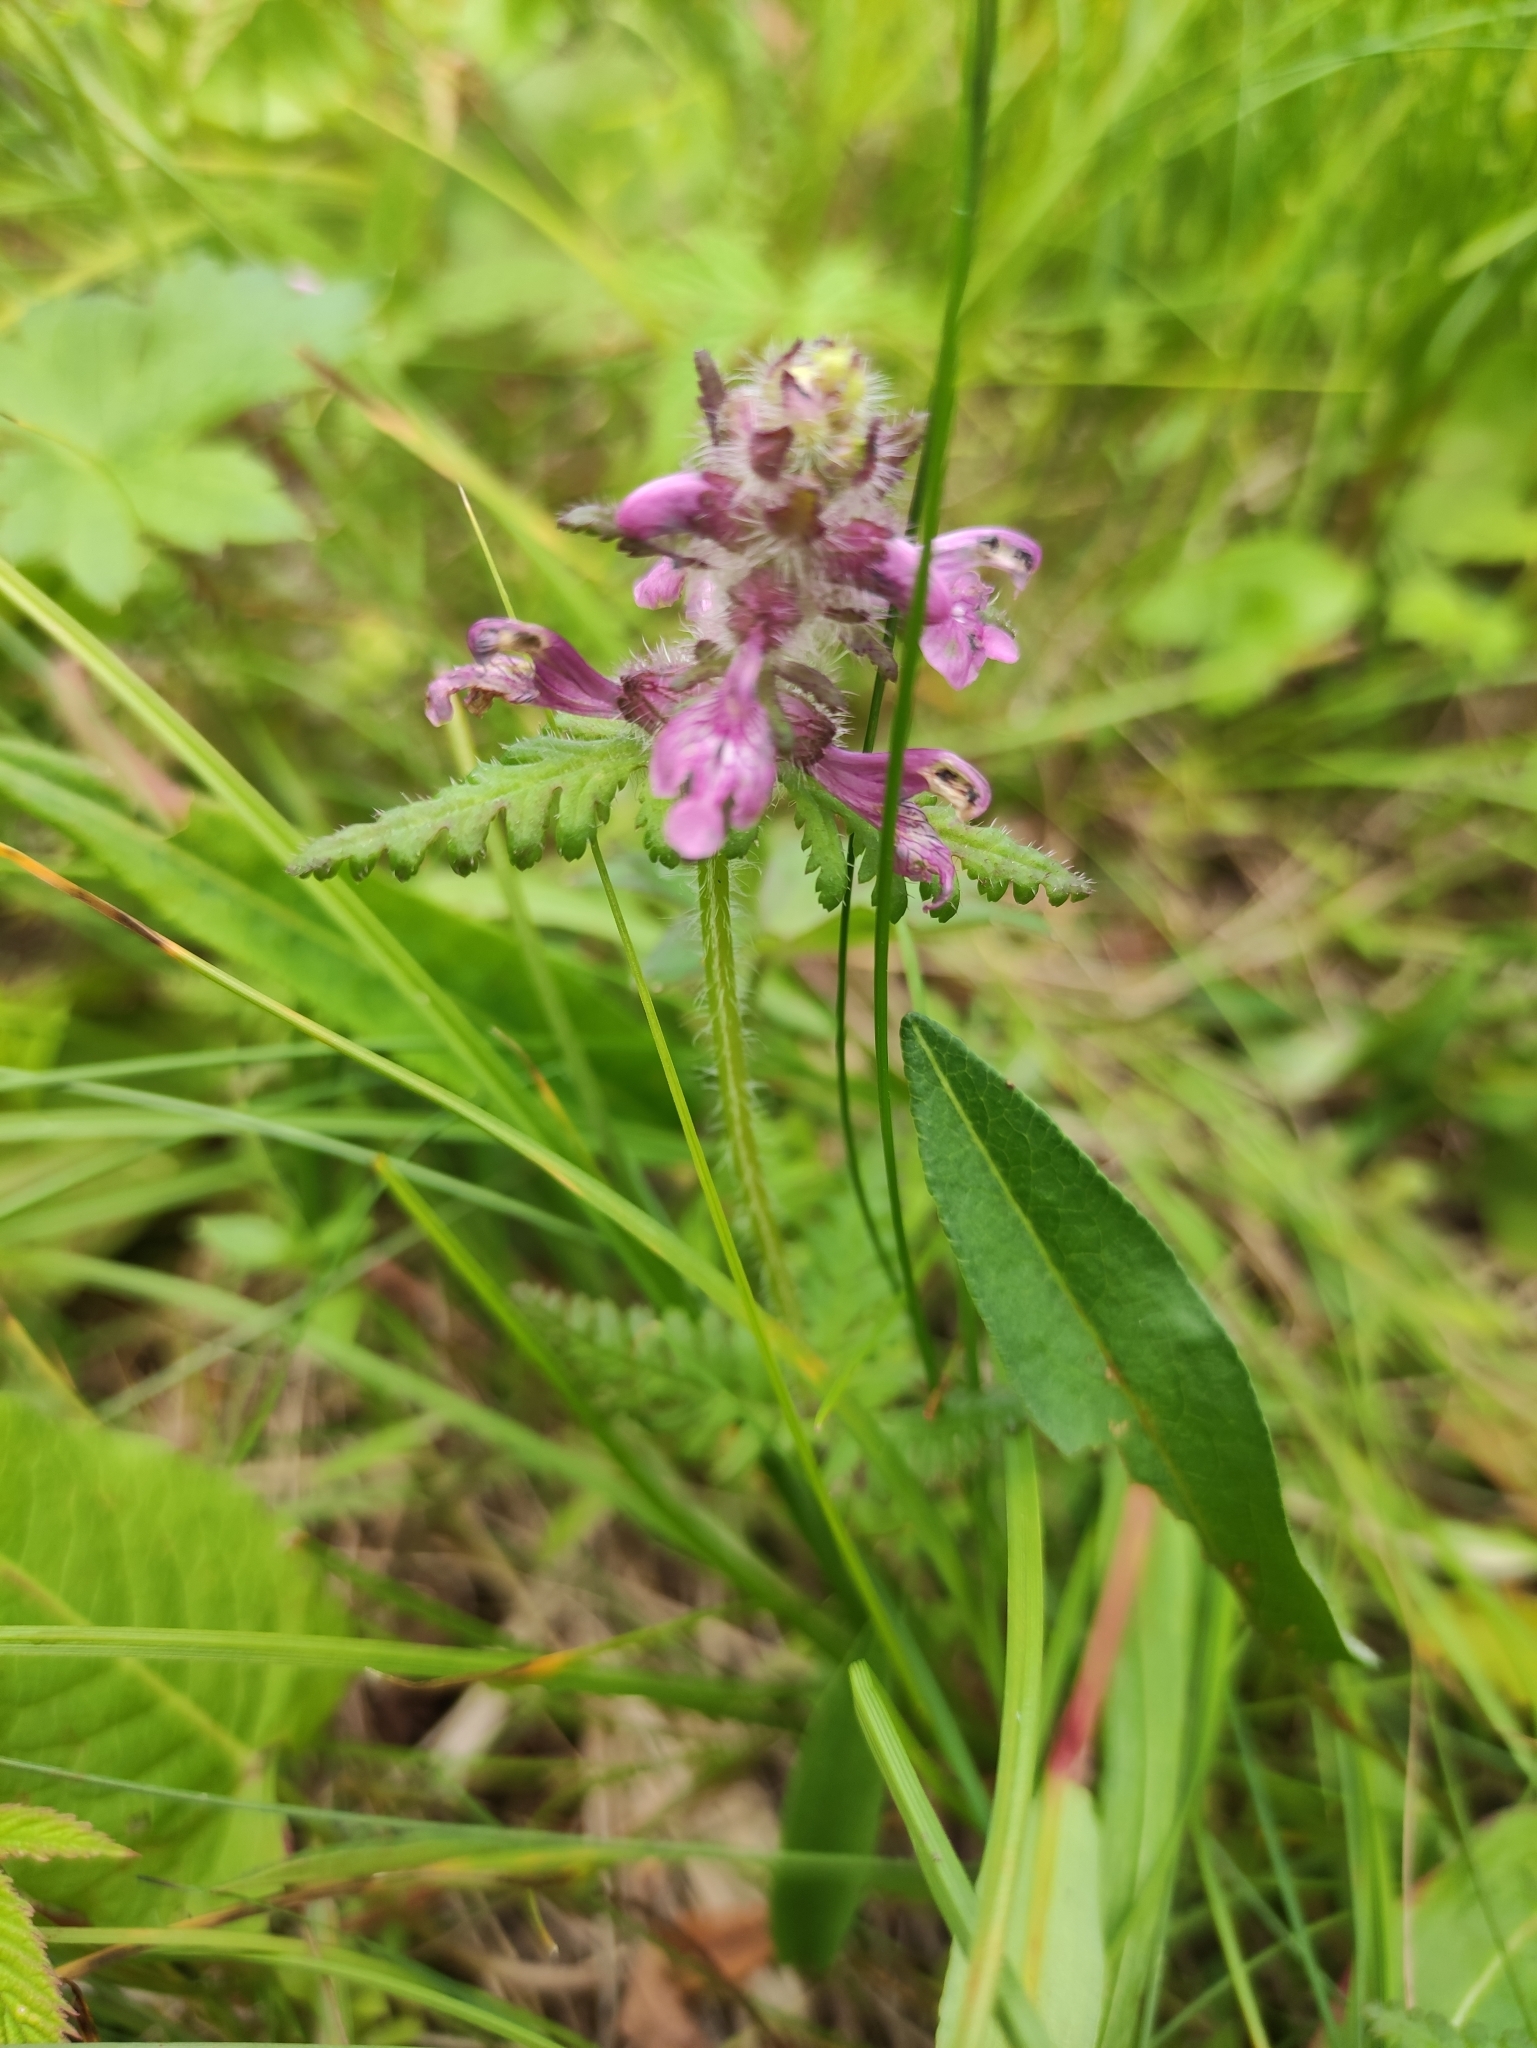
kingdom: Plantae
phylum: Tracheophyta
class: Magnoliopsida
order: Lamiales
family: Orobanchaceae
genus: Pedicularis
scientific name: Pedicularis verticillata
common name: Whorled lousewort
